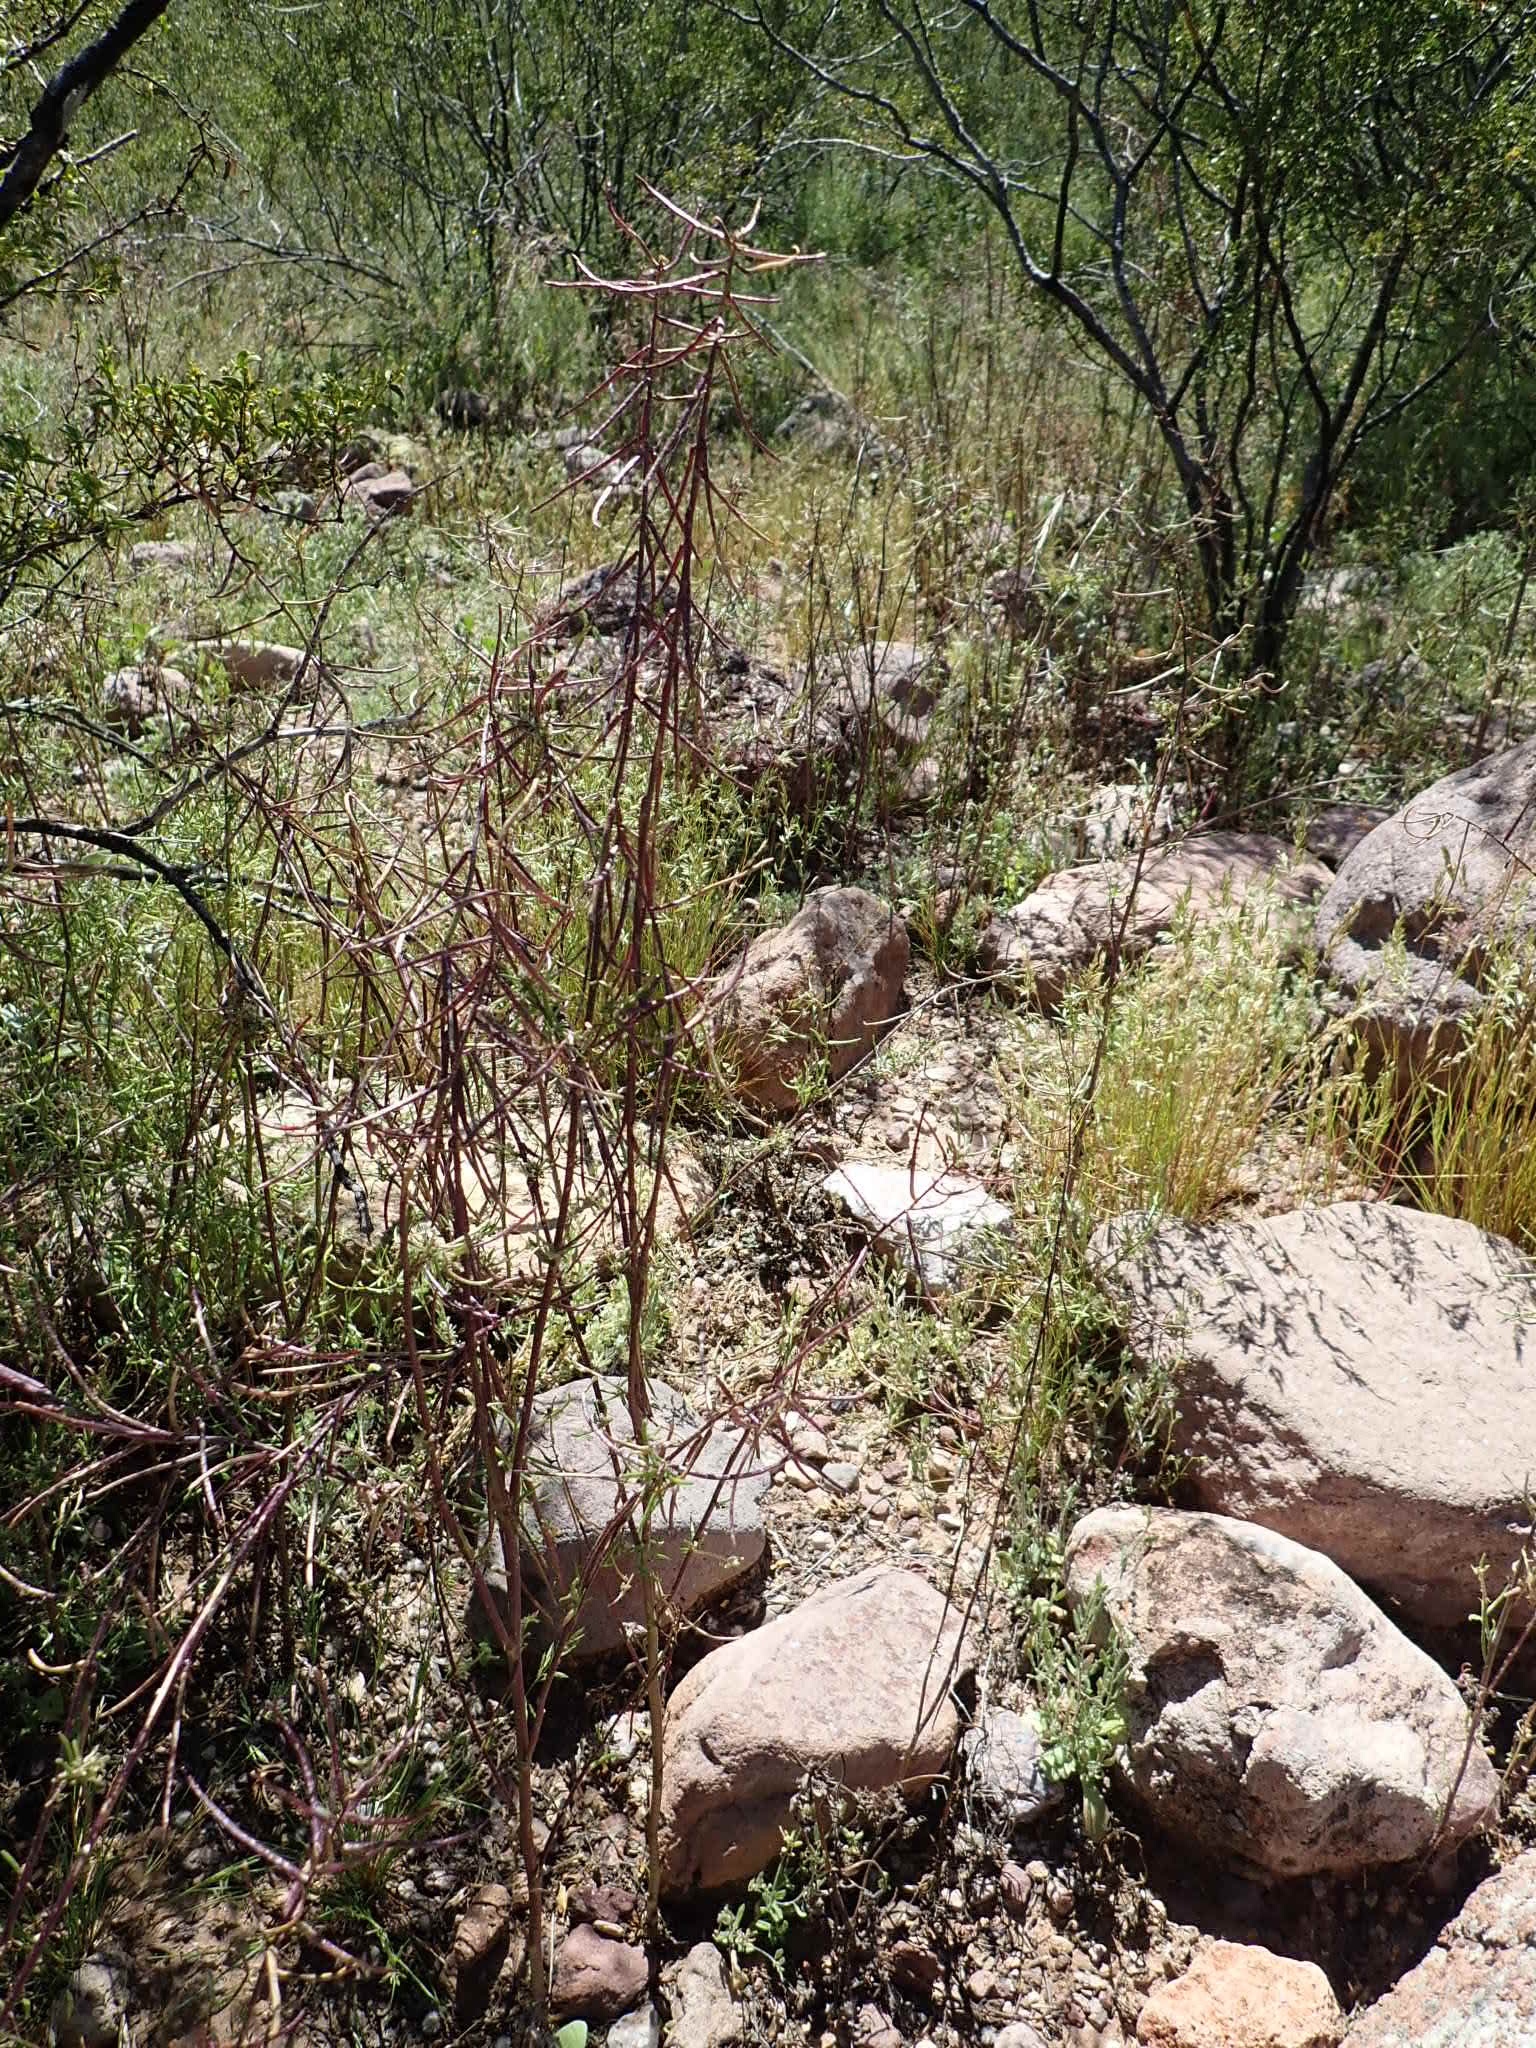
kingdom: Plantae
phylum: Tracheophyta
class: Magnoliopsida
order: Brassicales
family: Brassicaceae
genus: Streptanthus
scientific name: Streptanthus lasiophyllus
